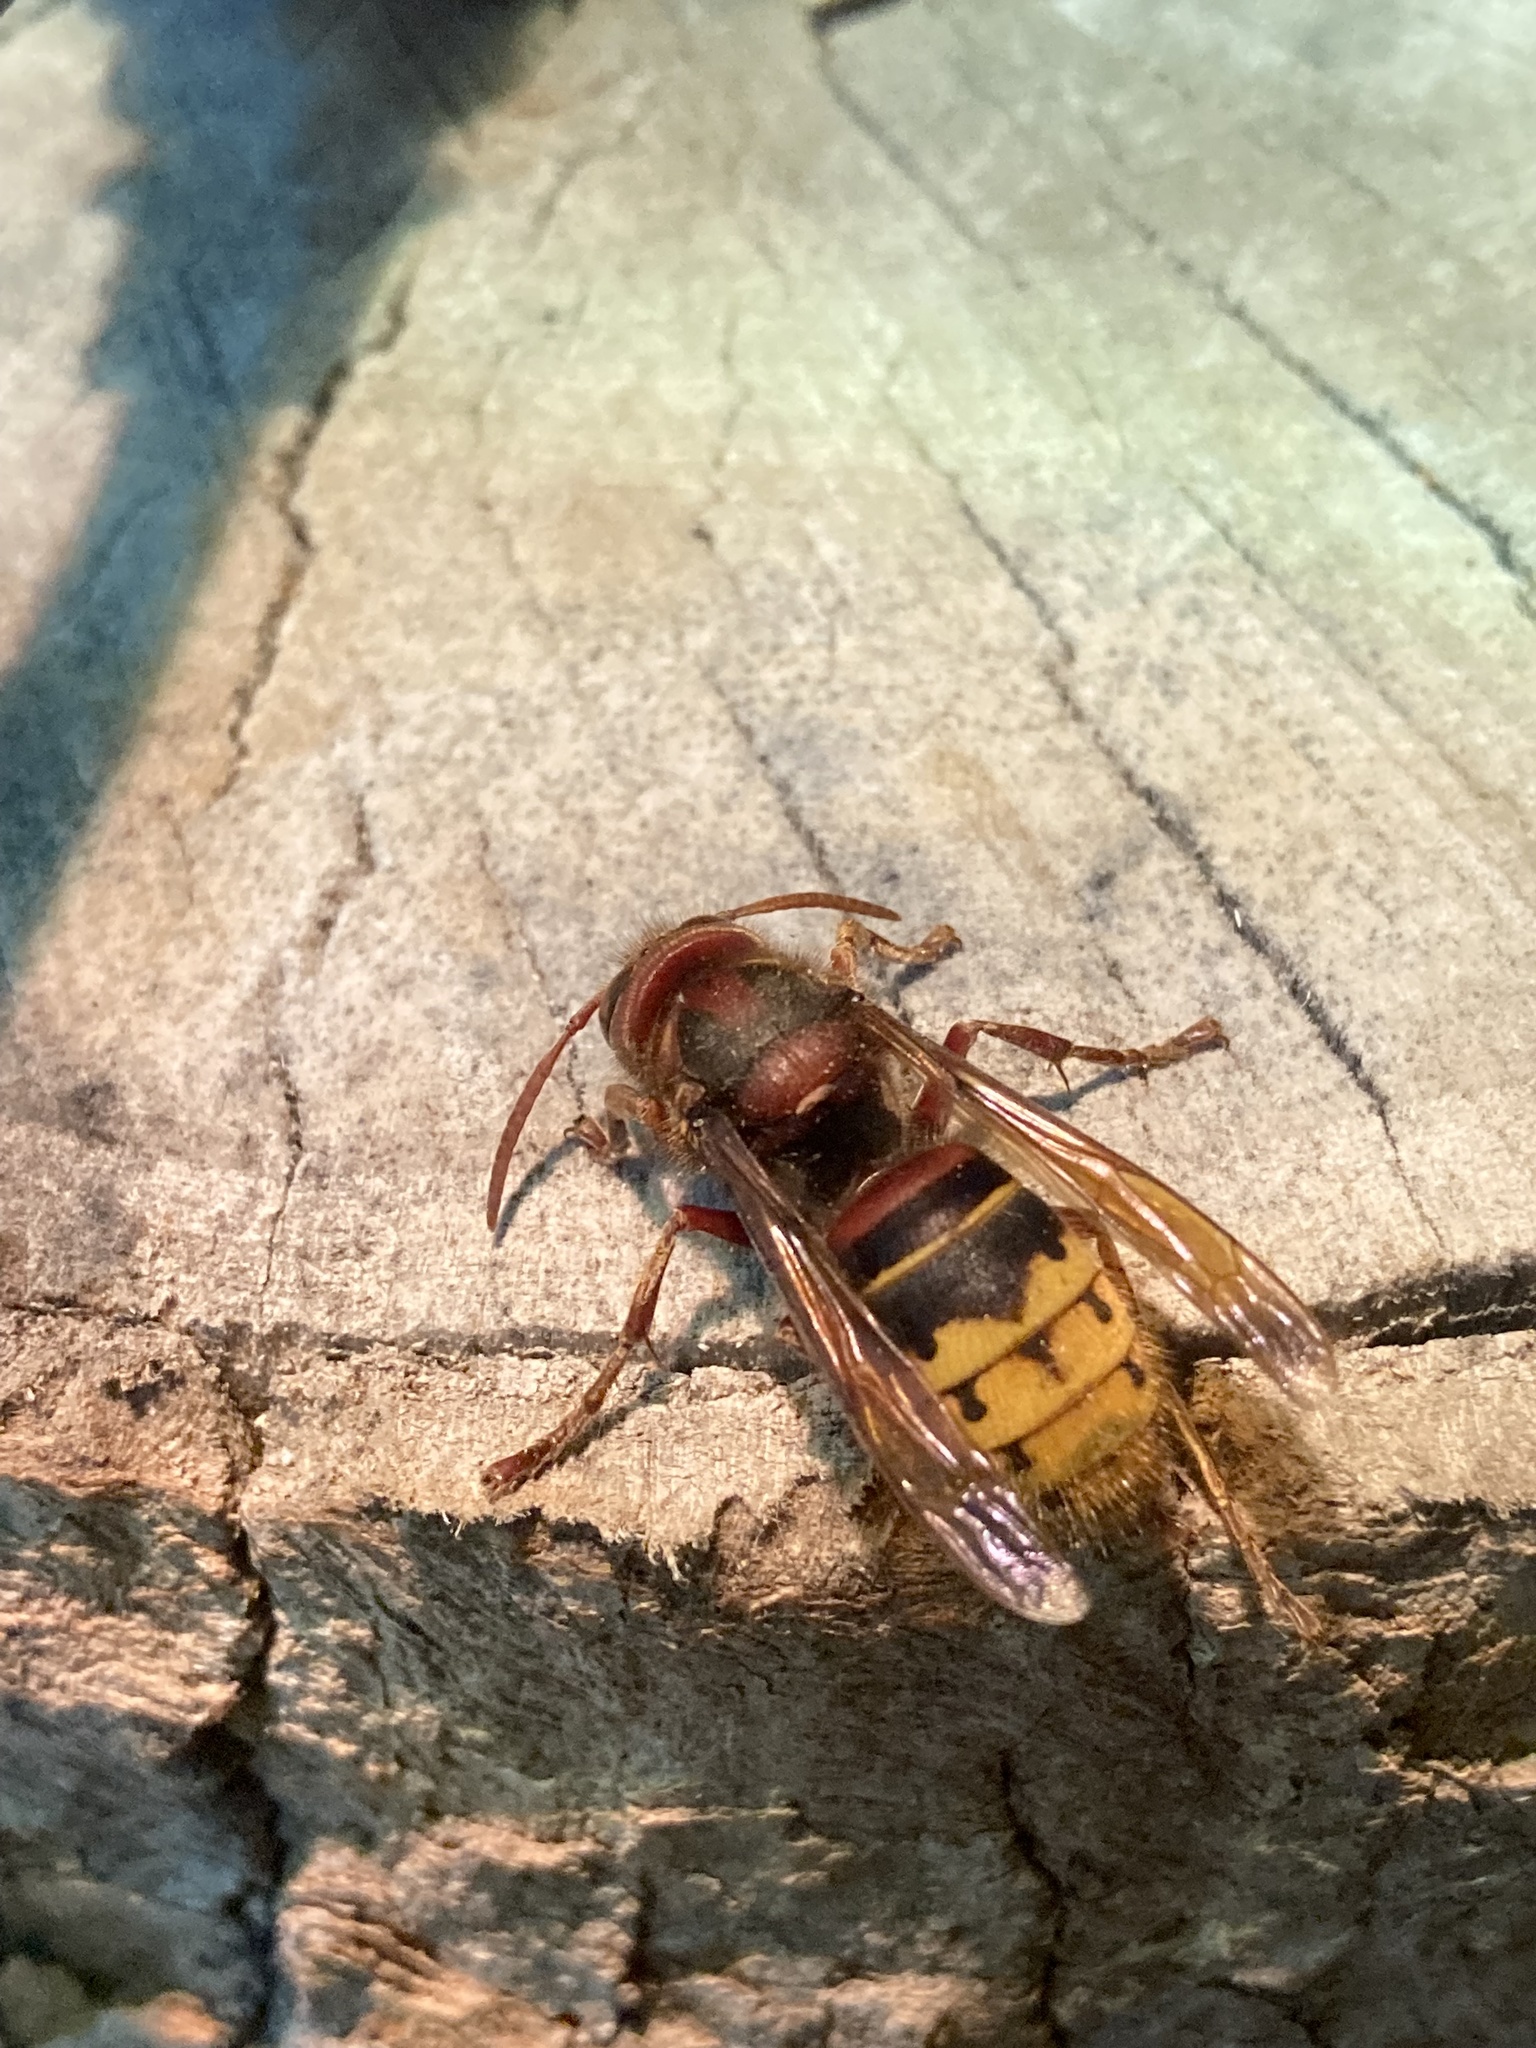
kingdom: Animalia
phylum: Arthropoda
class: Insecta
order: Hymenoptera
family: Vespidae
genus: Vespa
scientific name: Vespa crabro
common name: Hornet
